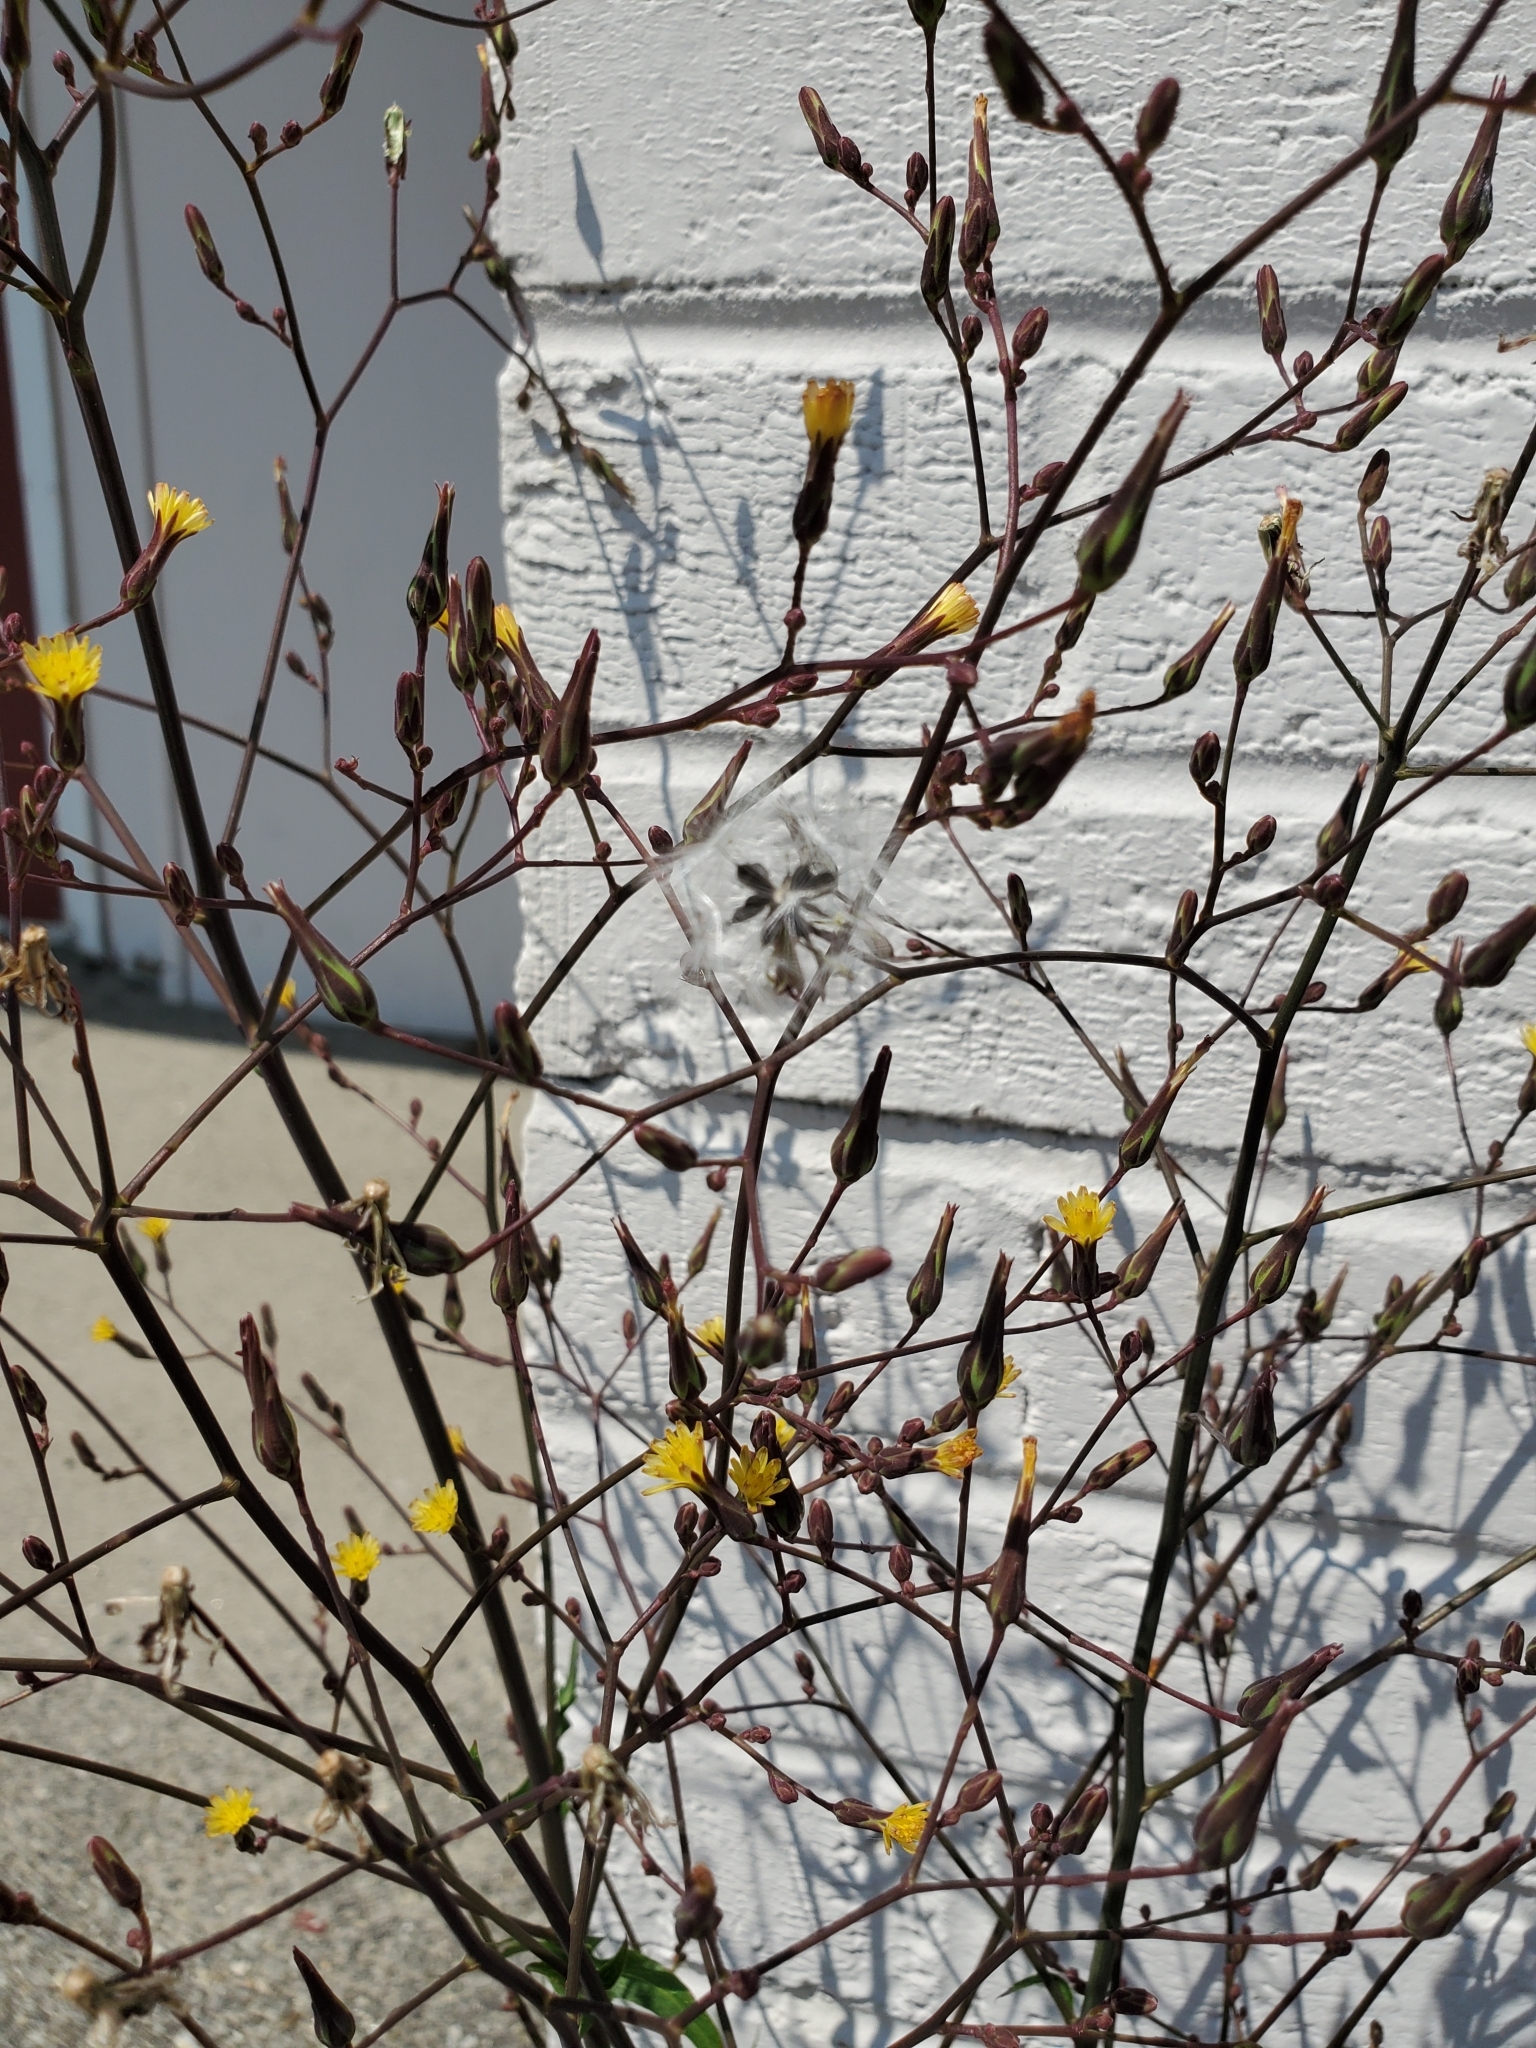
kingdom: Plantae
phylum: Tracheophyta
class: Magnoliopsida
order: Asterales
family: Asteraceae
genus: Lactuca
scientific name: Lactuca canadensis
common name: Canada lettuce
